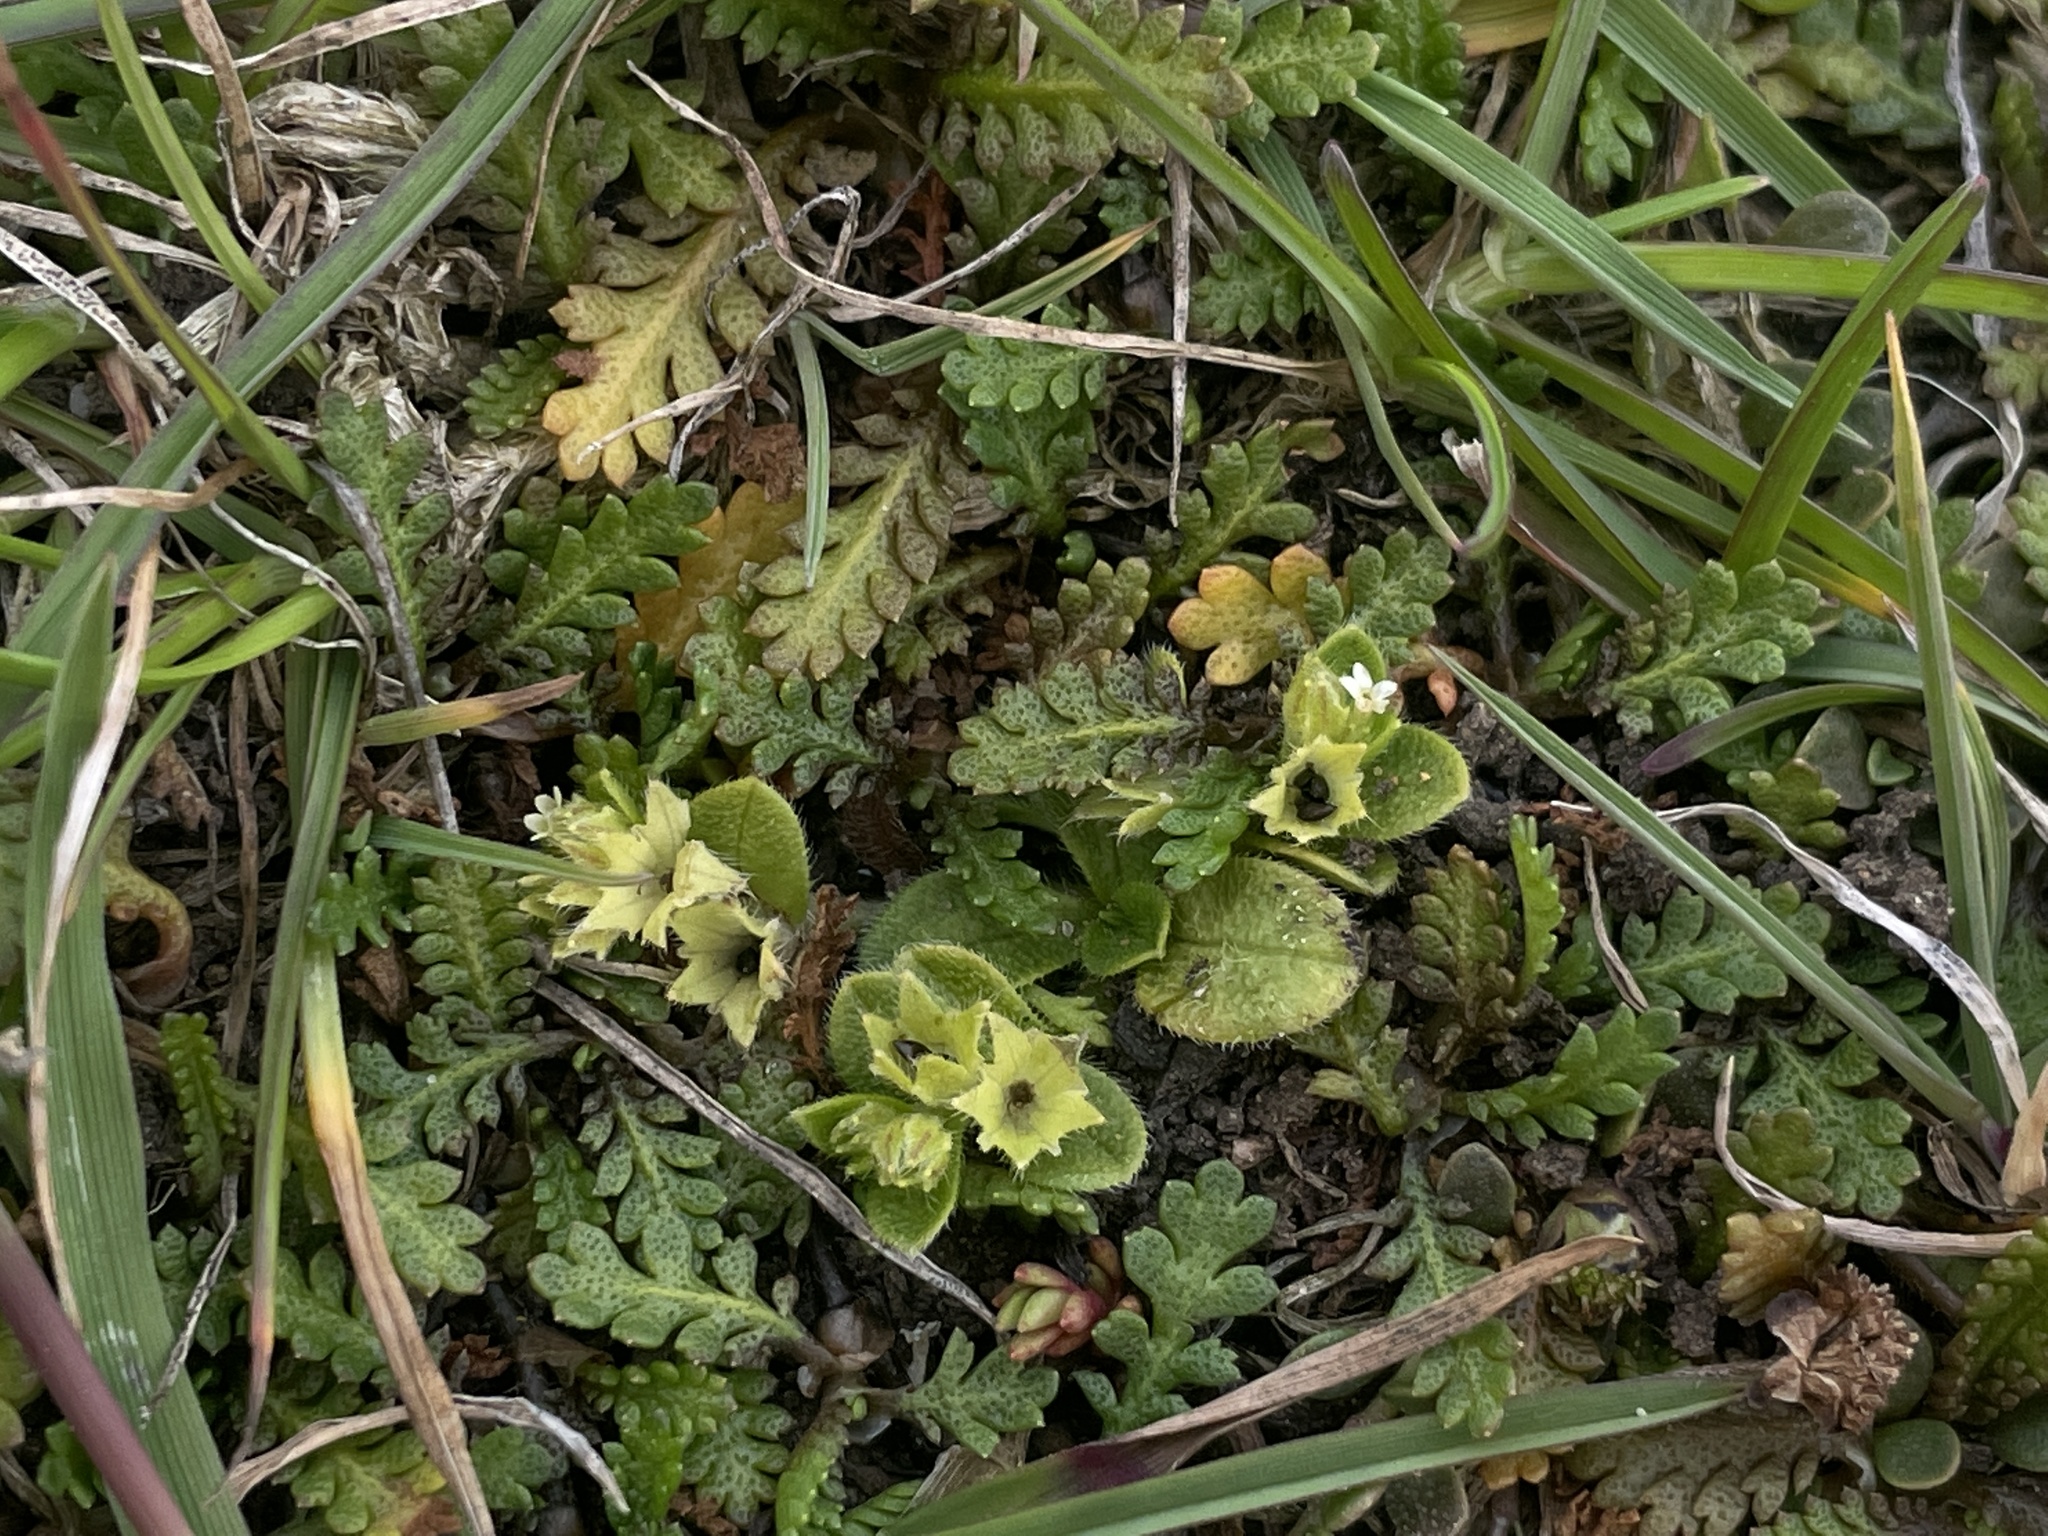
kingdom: Plantae
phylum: Tracheophyta
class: Magnoliopsida
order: Boraginales
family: Boraginaceae
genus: Myosotis
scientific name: Myosotis antarctica
